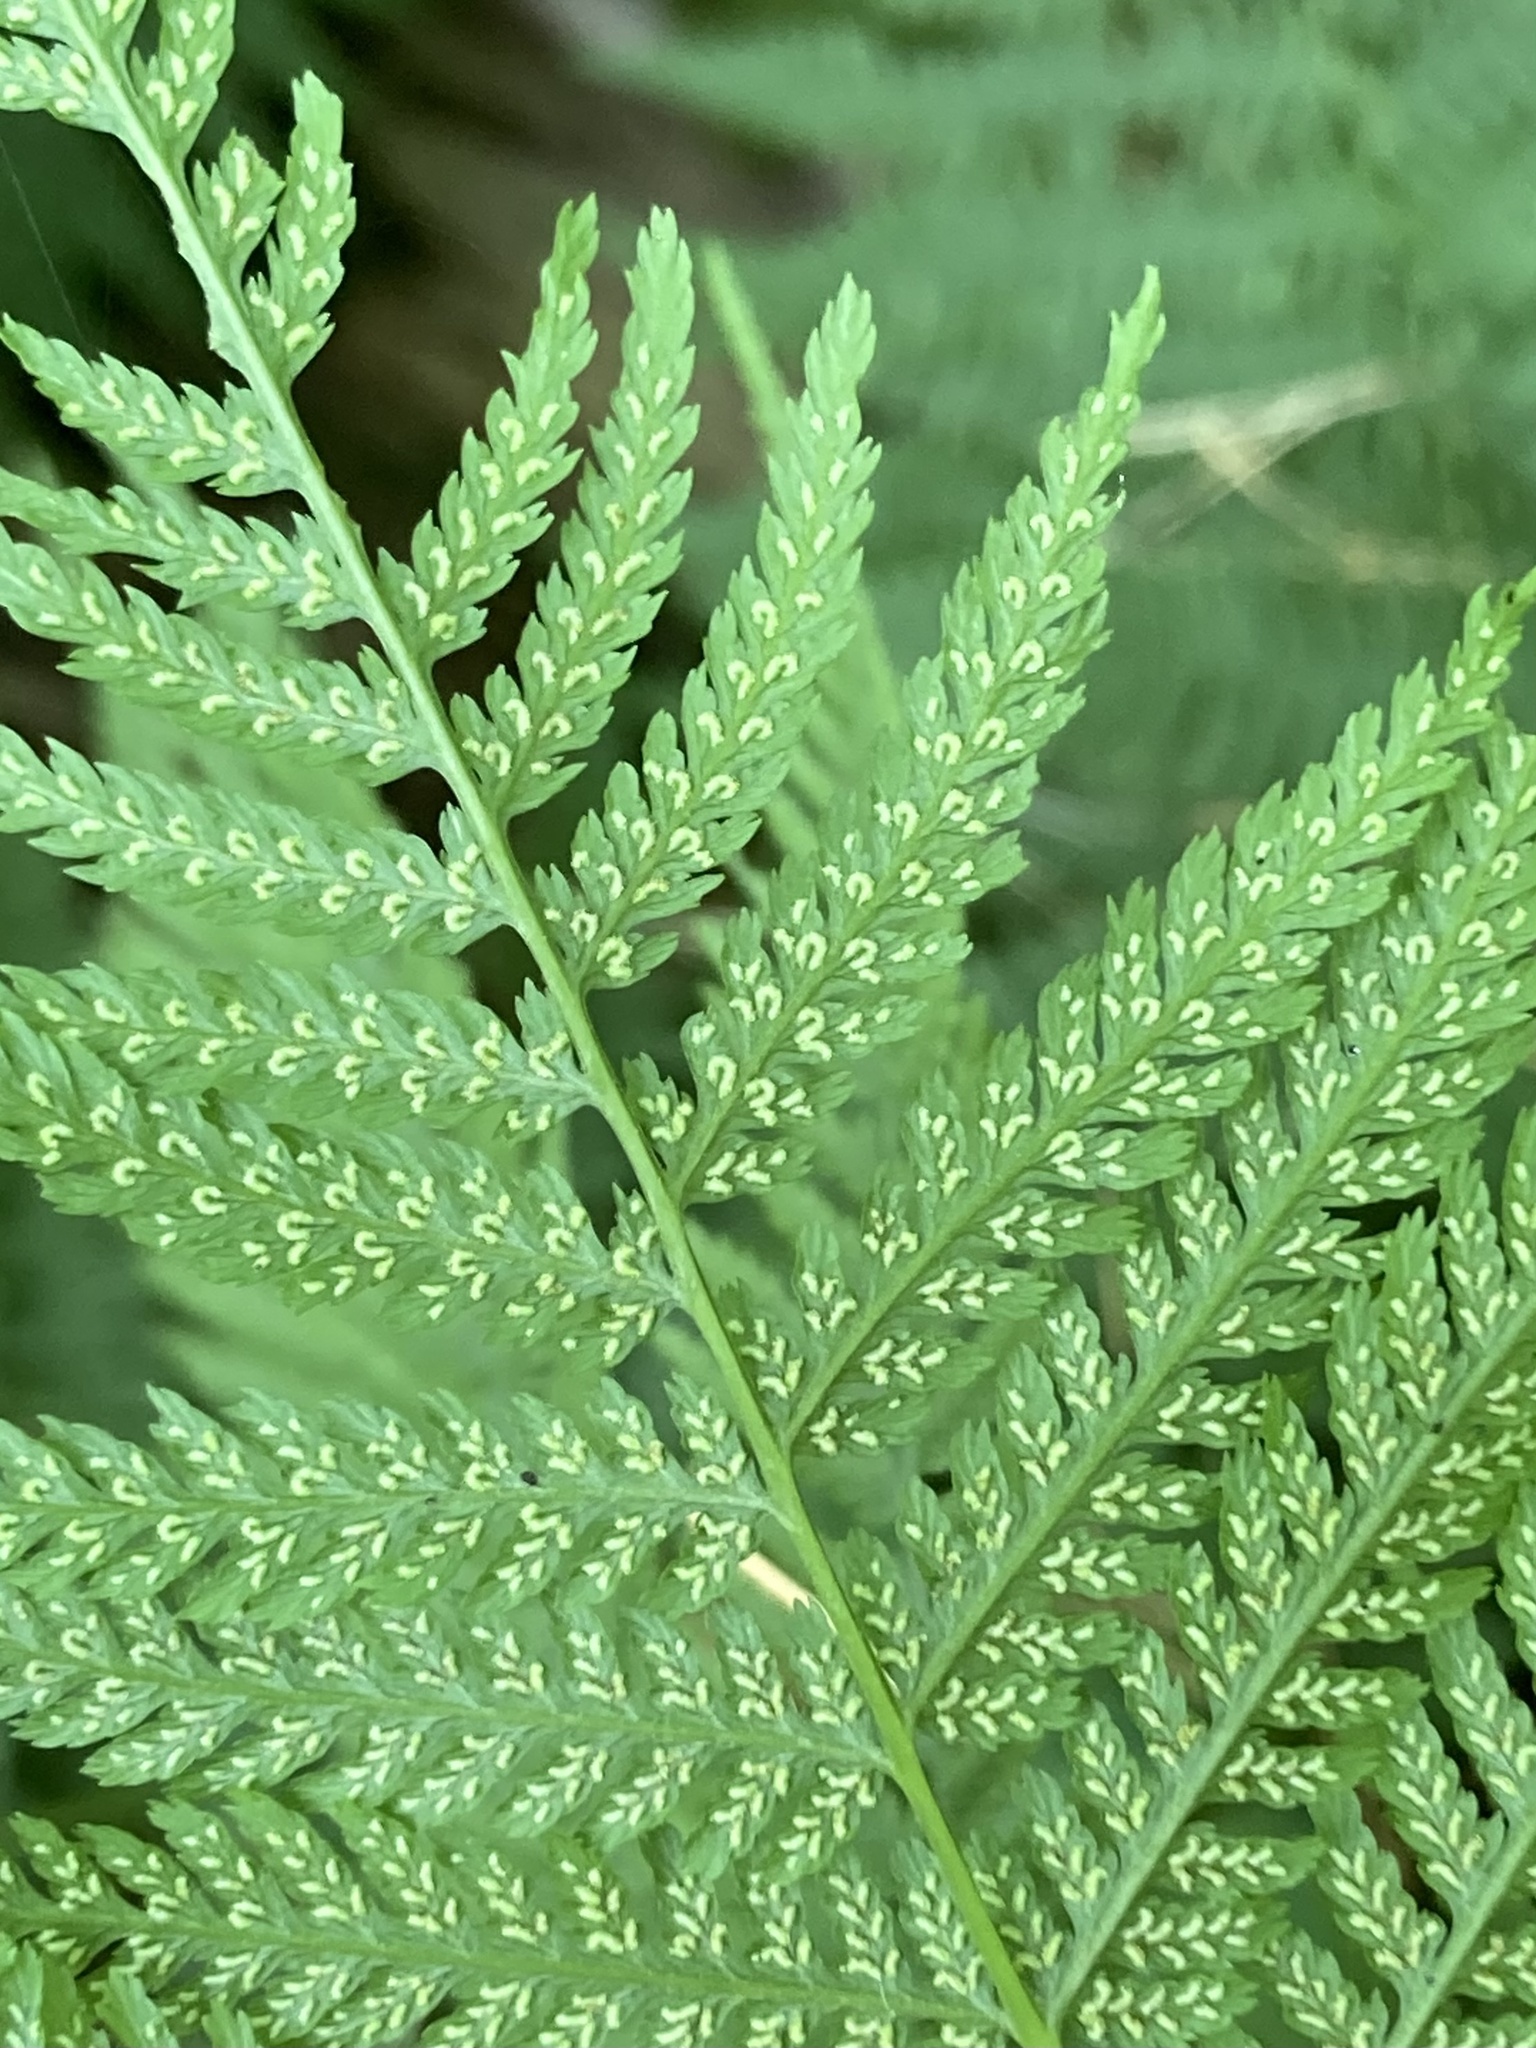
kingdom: Plantae
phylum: Tracheophyta
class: Polypodiopsida
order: Polypodiales
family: Athyriaceae
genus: Athyrium
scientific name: Athyrium angustum
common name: Northern lady fern
